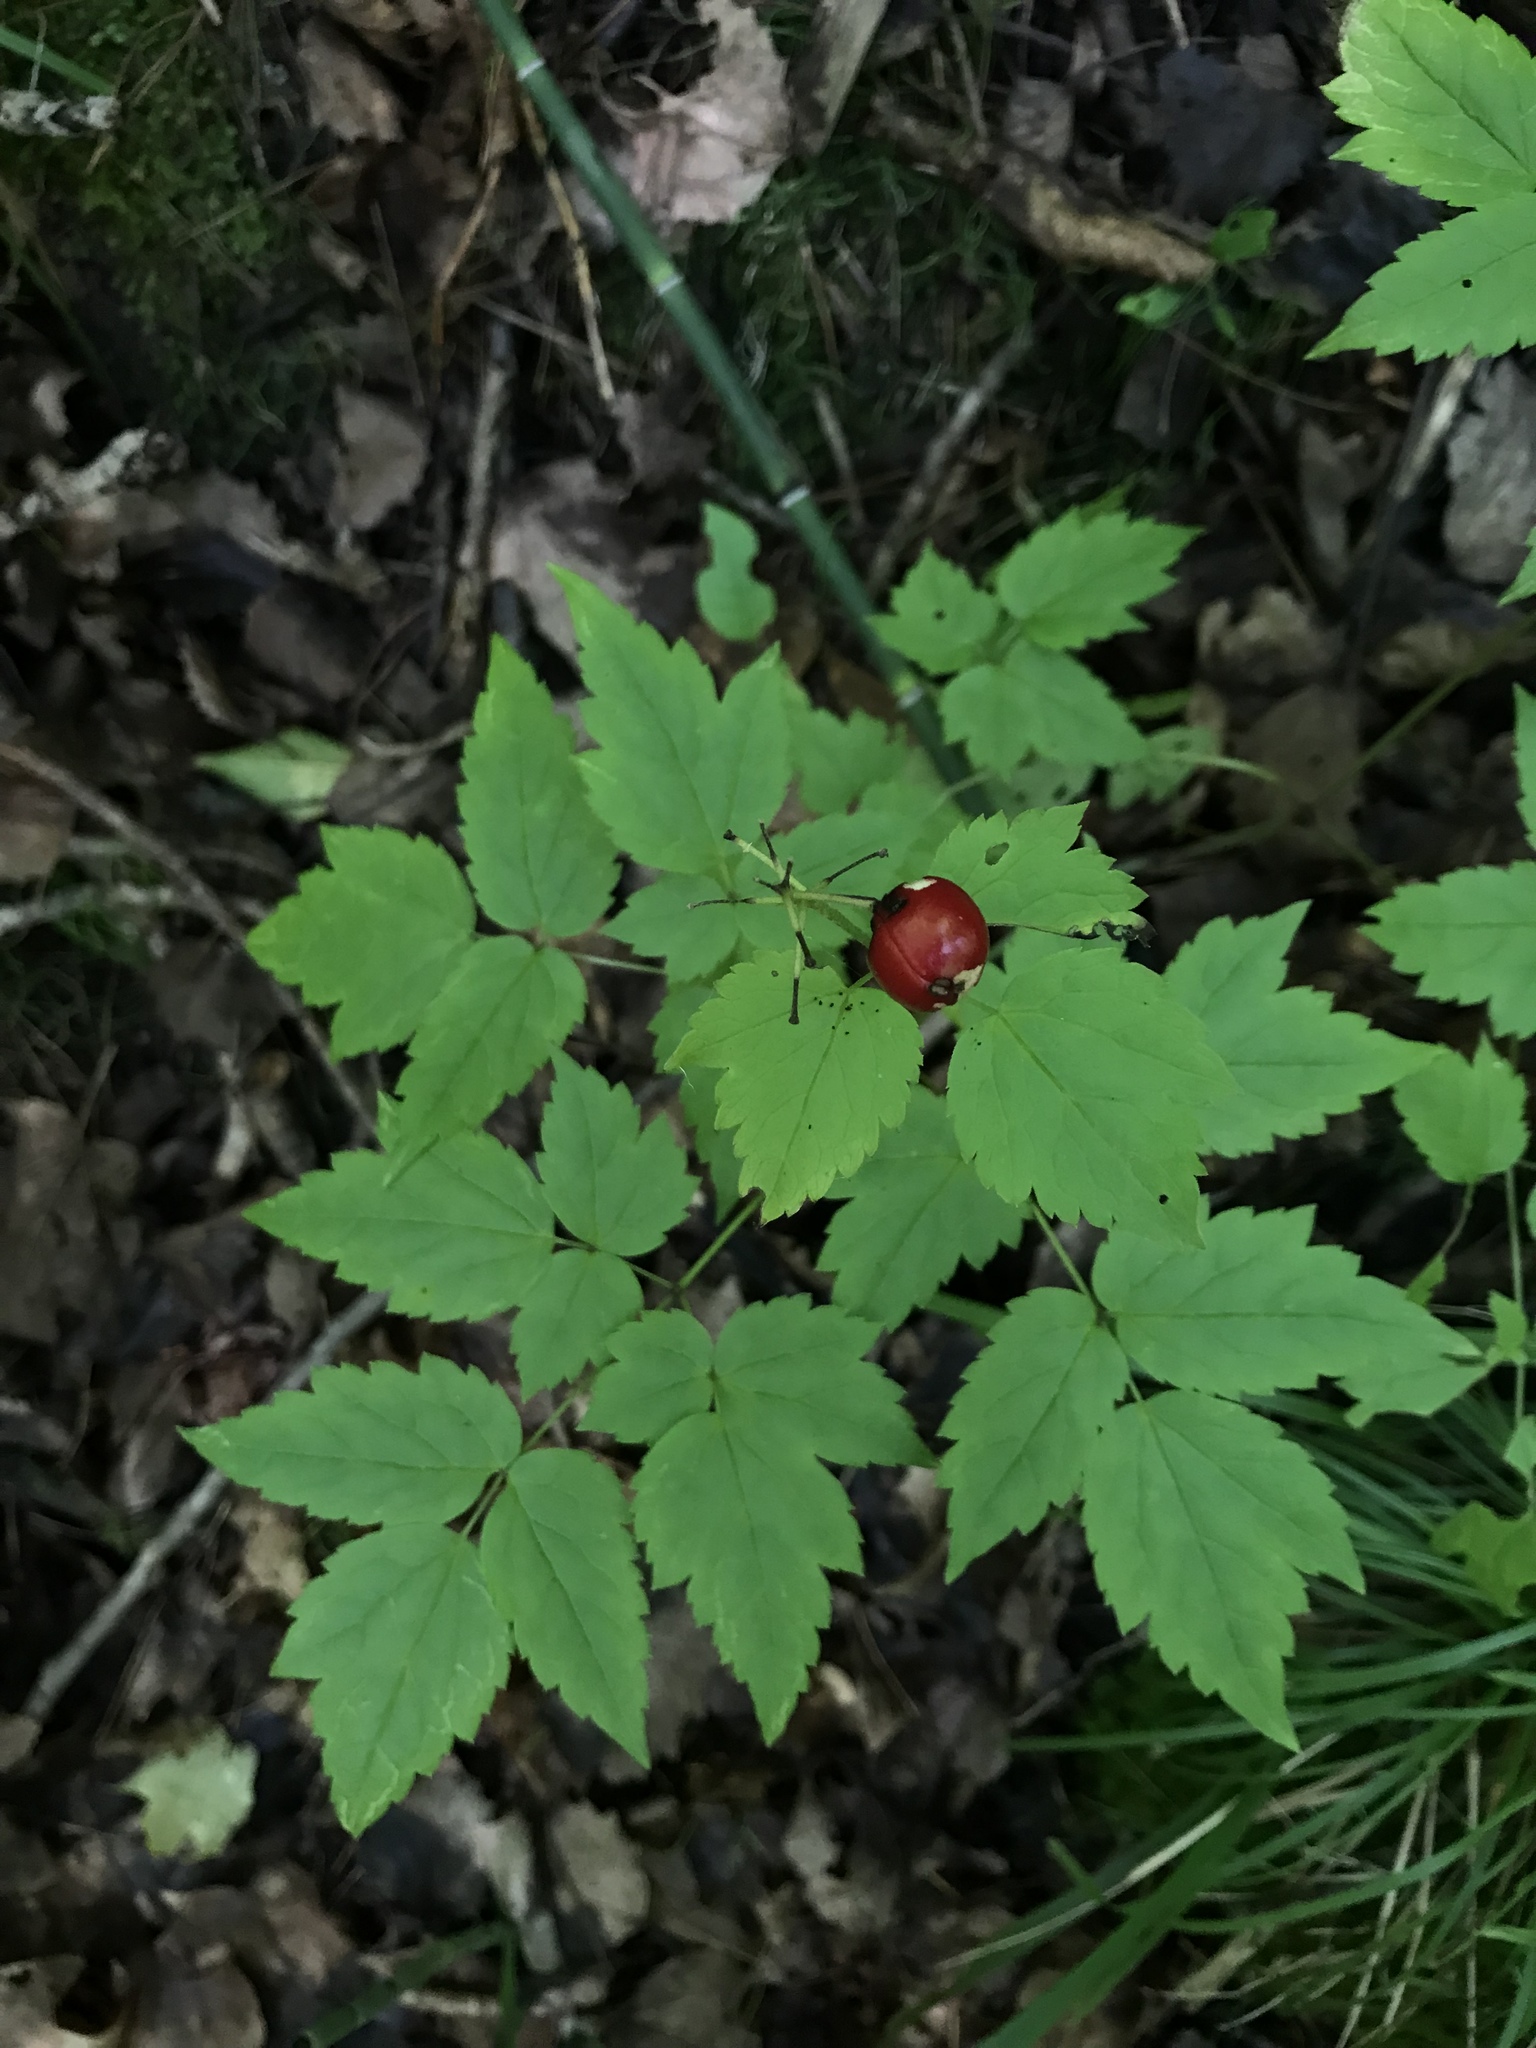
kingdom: Plantae
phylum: Tracheophyta
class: Magnoliopsida
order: Ranunculales
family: Ranunculaceae
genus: Actaea
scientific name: Actaea rubra
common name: Red baneberry
